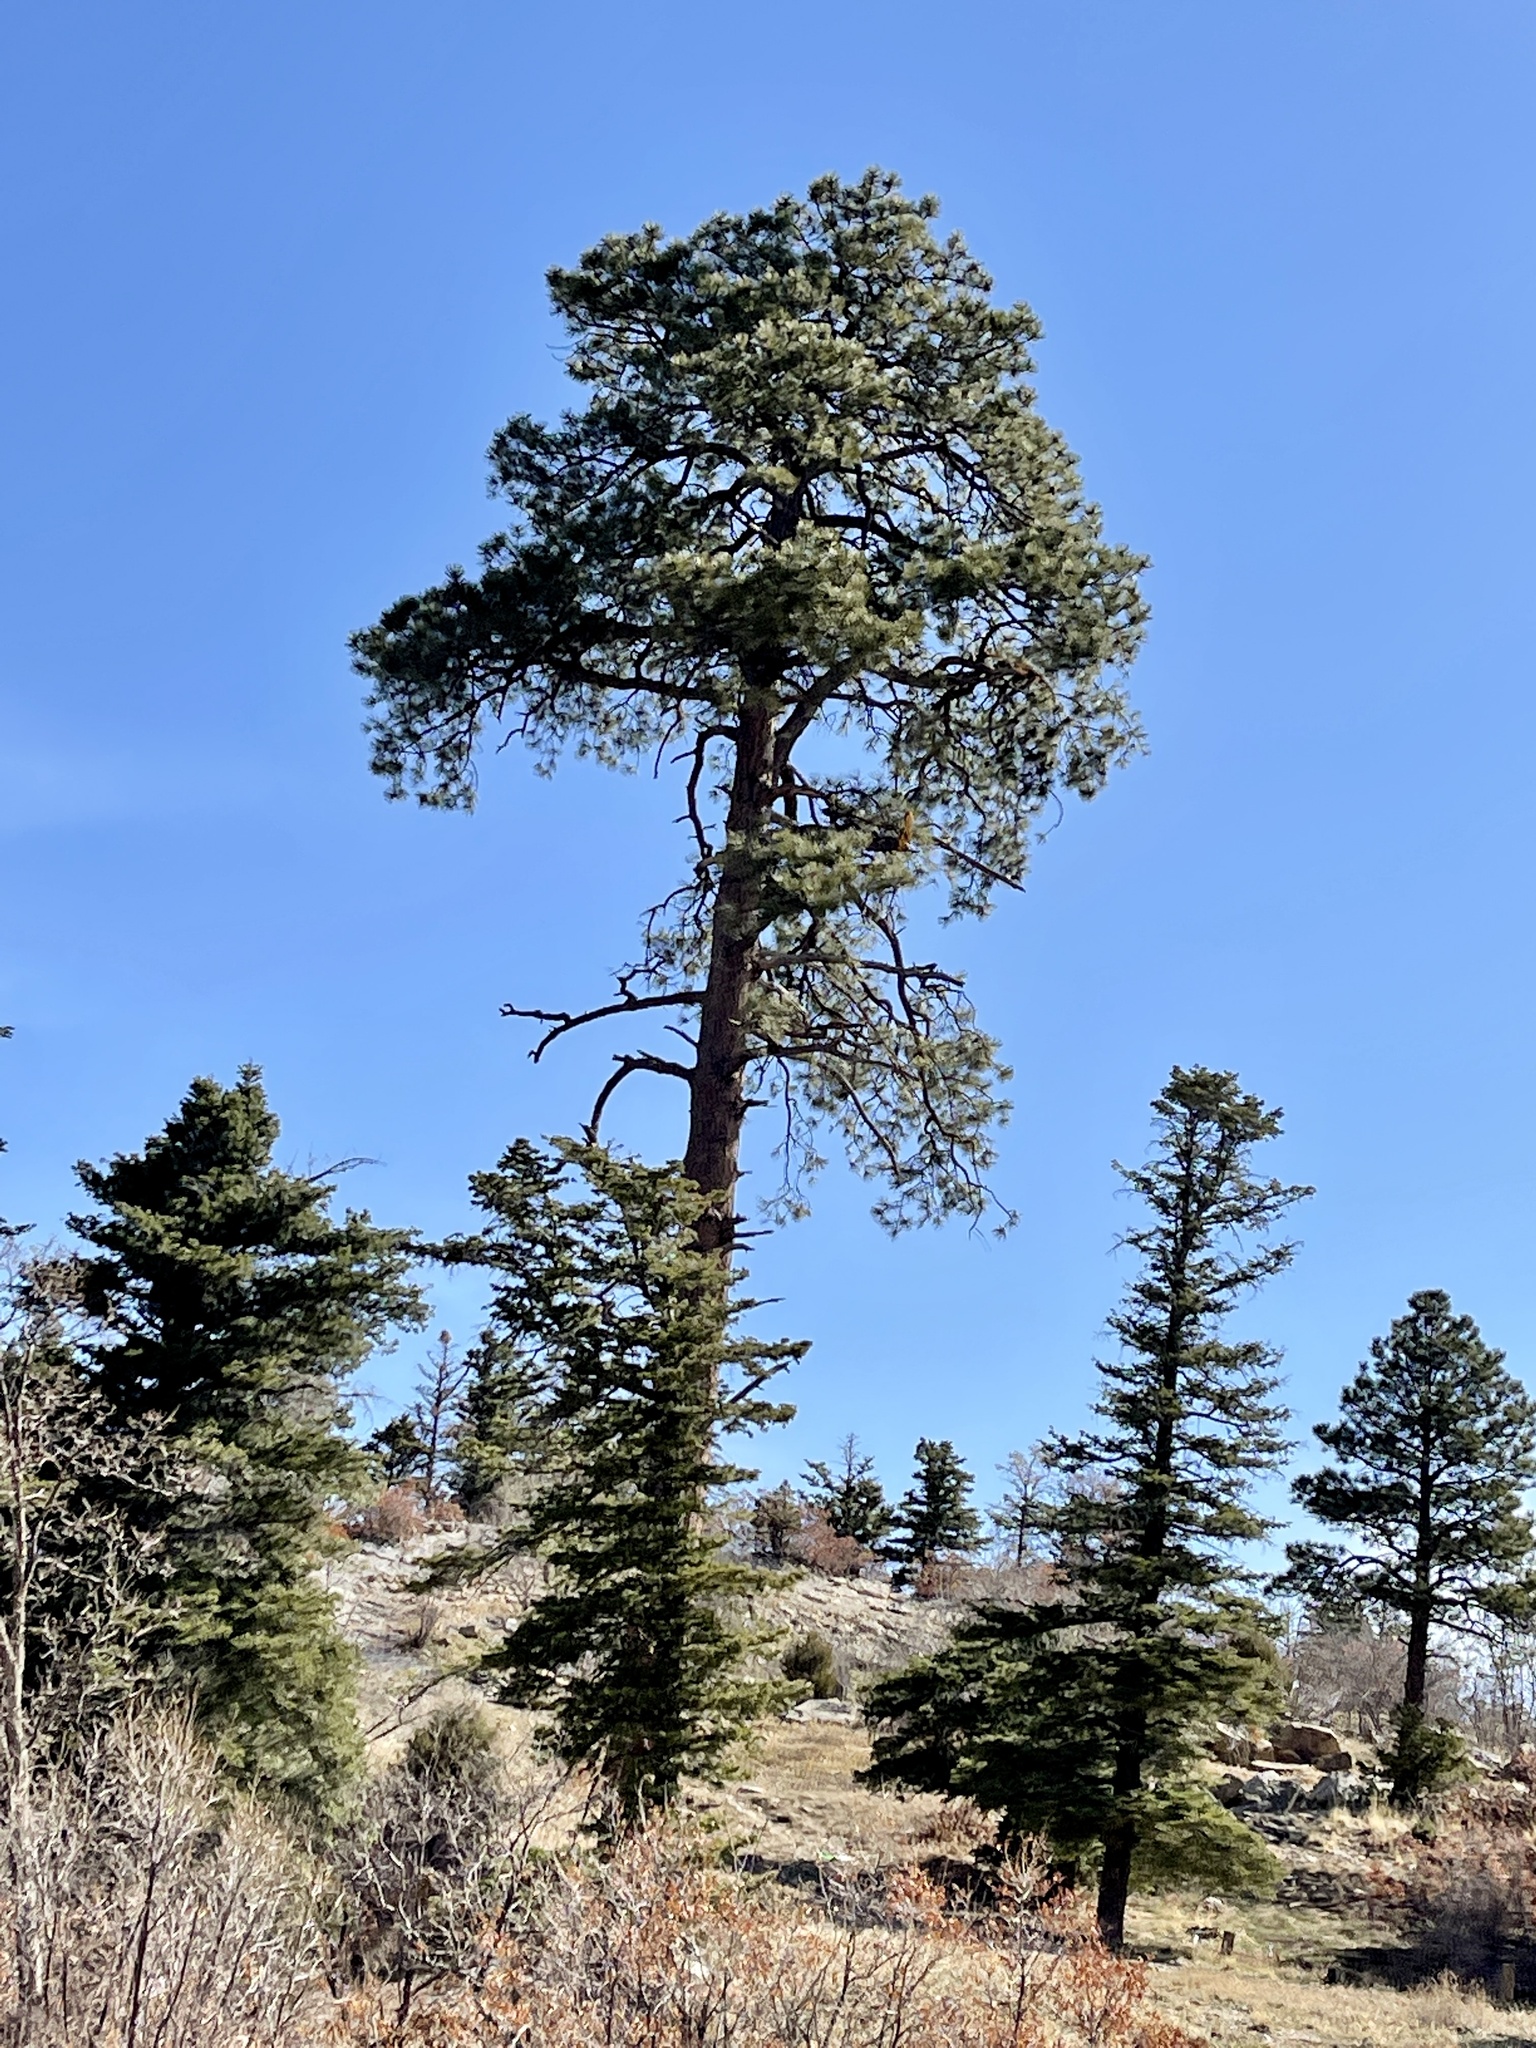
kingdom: Plantae
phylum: Tracheophyta
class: Pinopsida
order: Pinales
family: Pinaceae
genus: Pinus
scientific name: Pinus ponderosa
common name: Western yellow-pine
